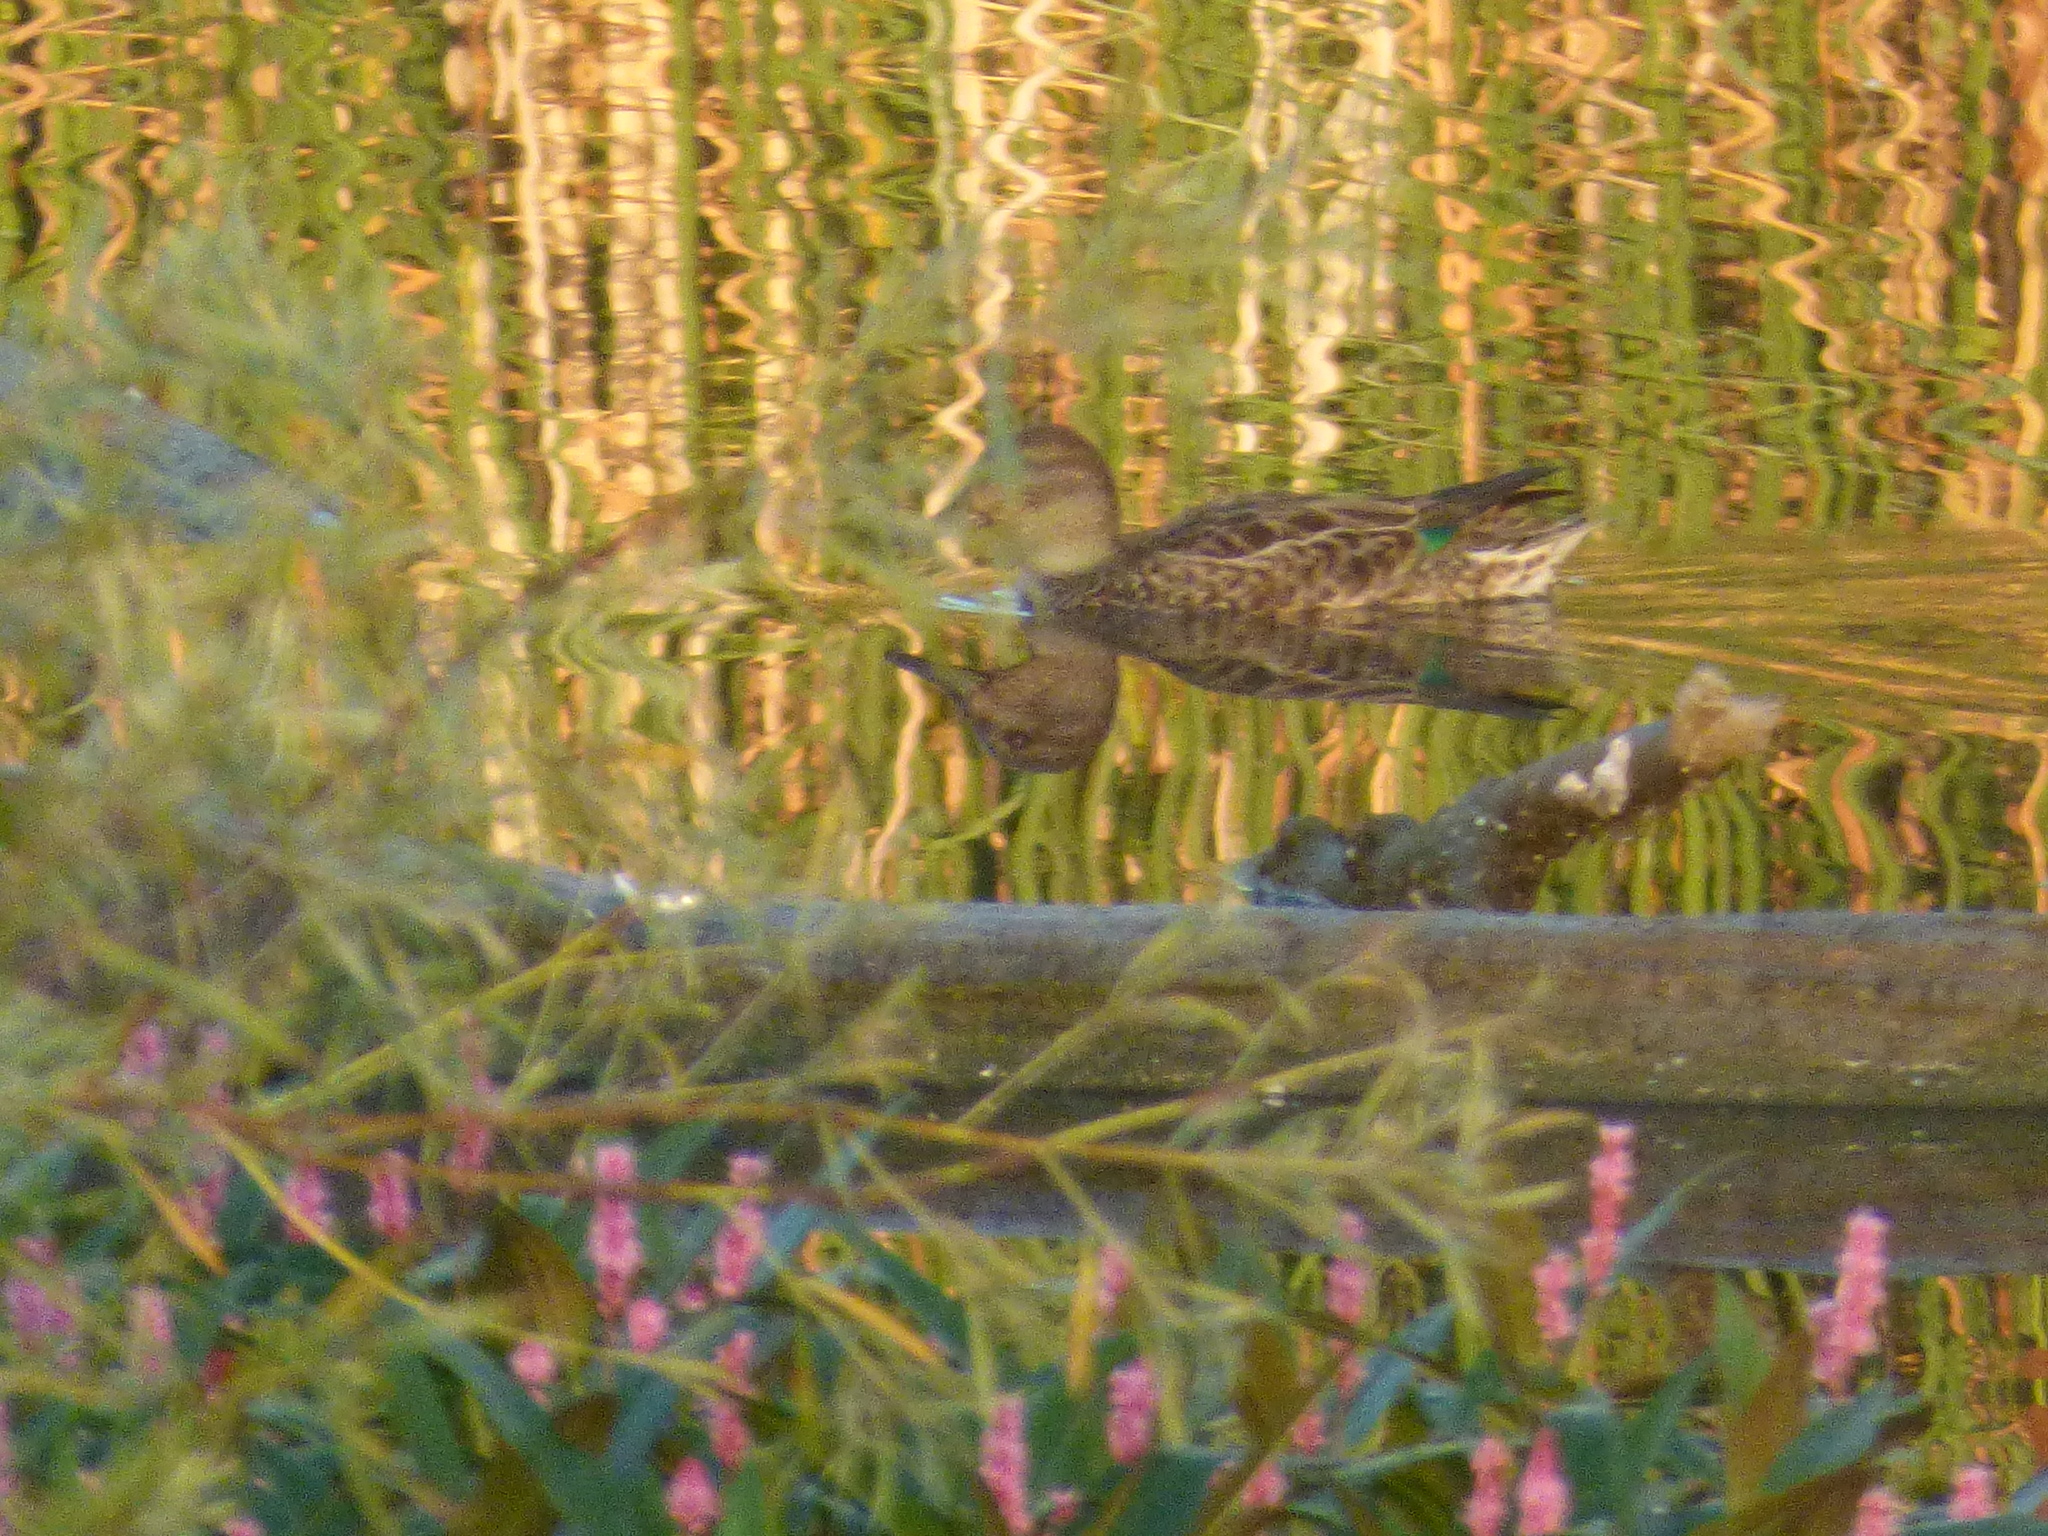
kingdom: Animalia
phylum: Chordata
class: Aves
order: Anseriformes
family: Anatidae
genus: Anas
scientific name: Anas carolinensis
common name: Green-winged teal
